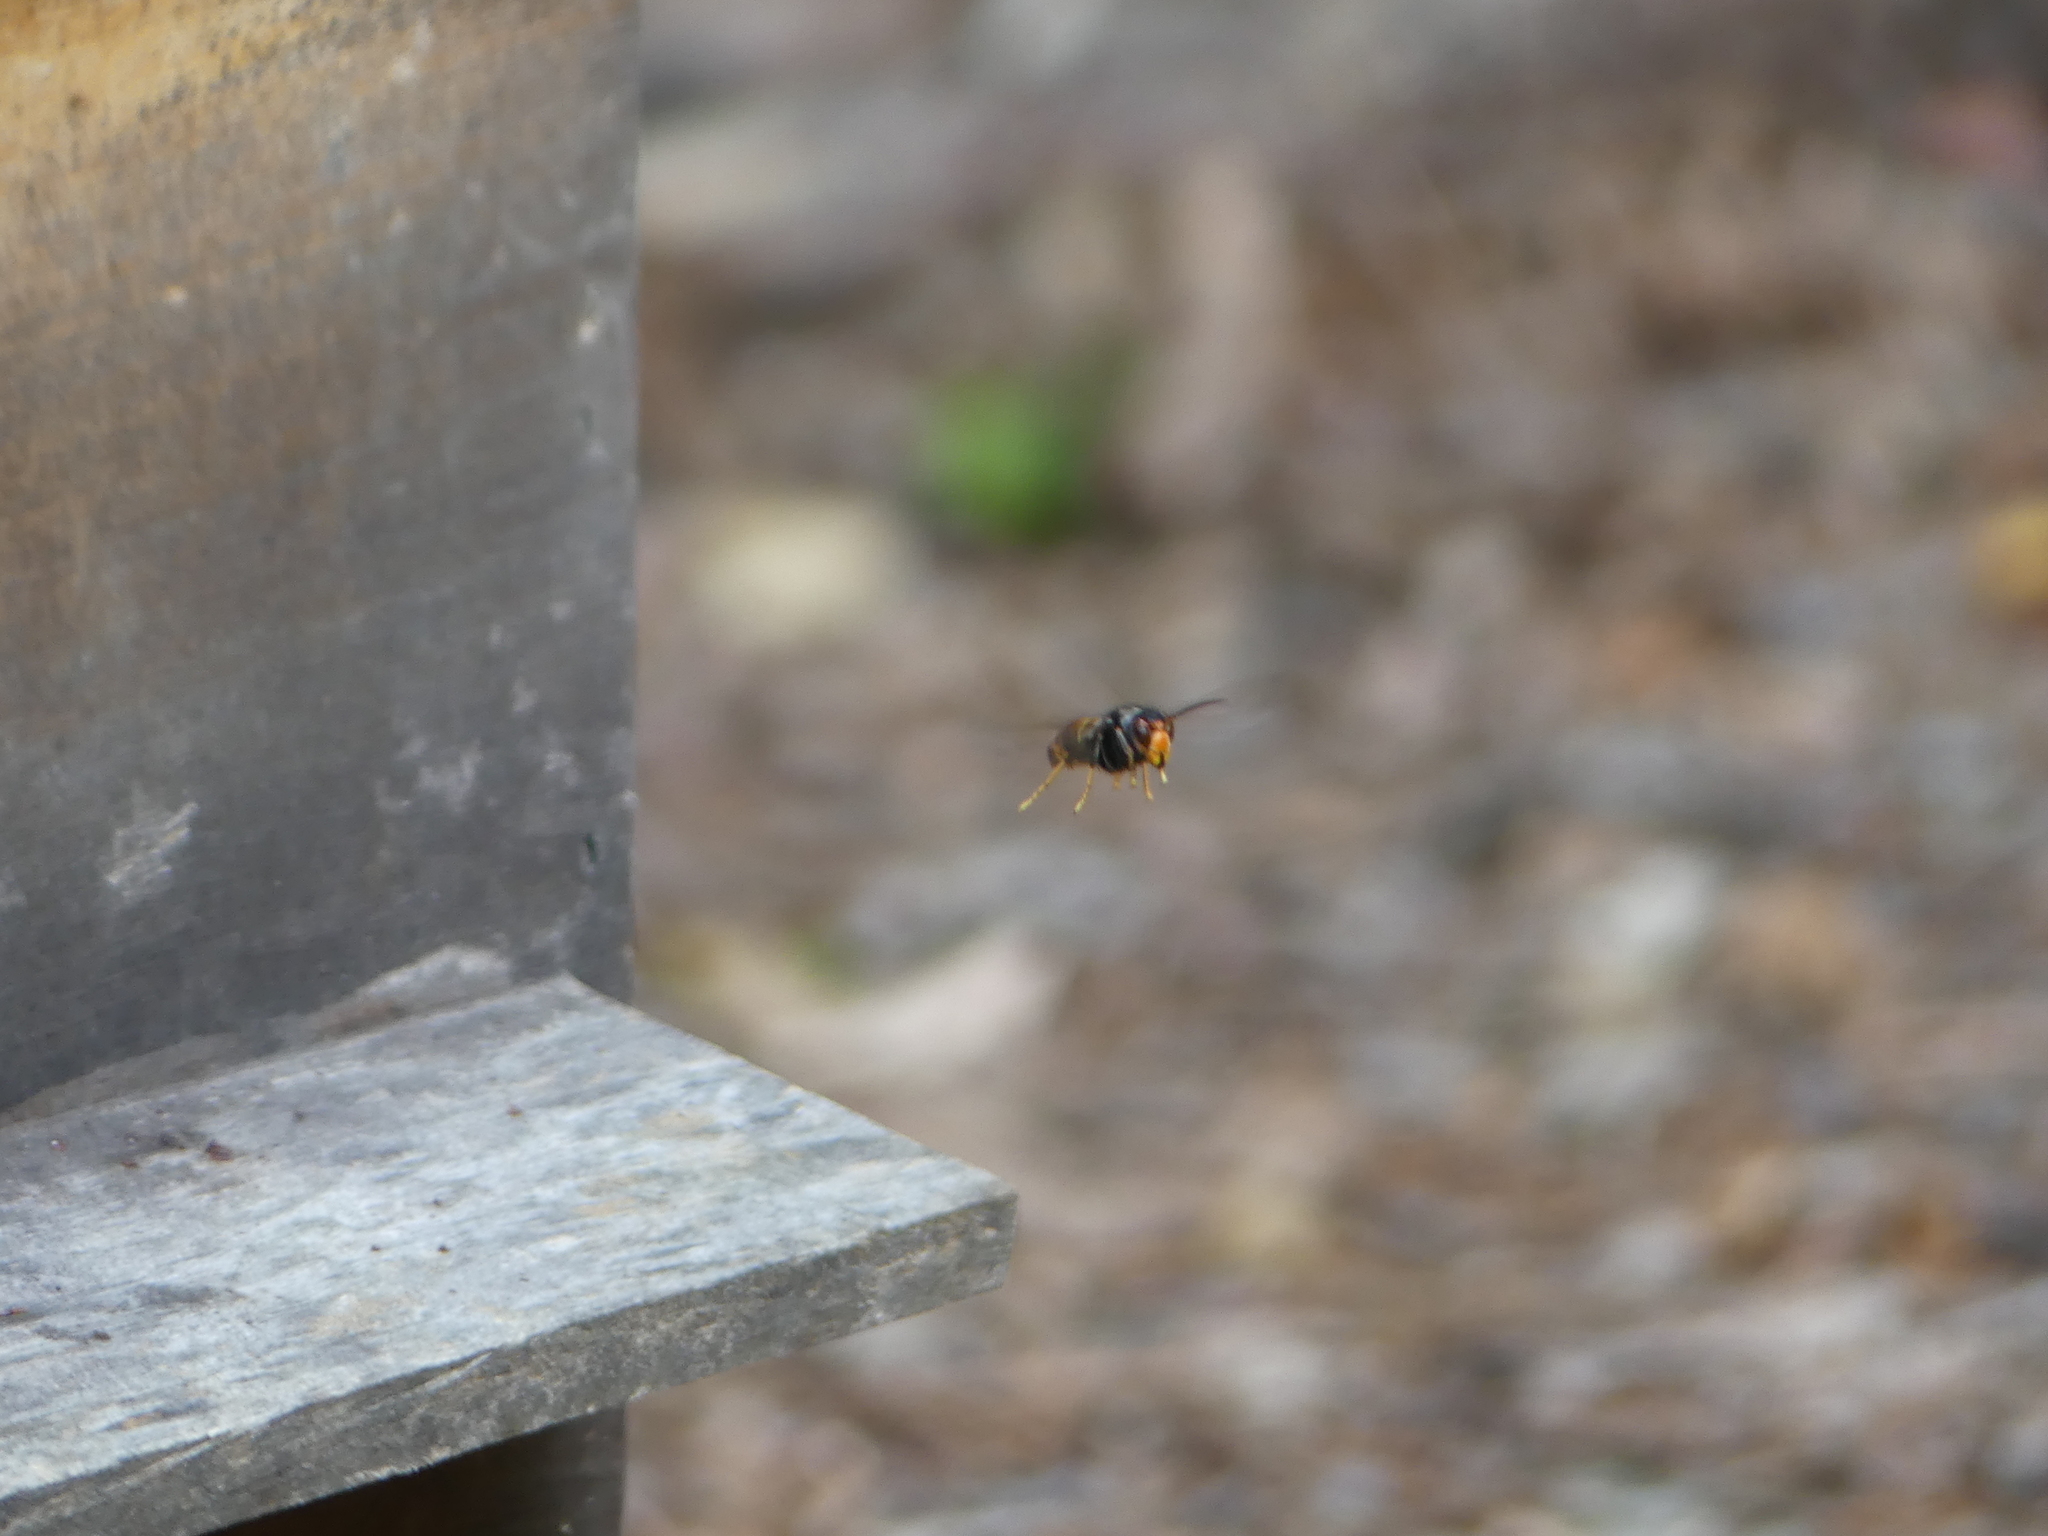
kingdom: Animalia
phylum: Arthropoda
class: Insecta
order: Hymenoptera
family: Vespidae
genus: Vespa
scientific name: Vespa velutina
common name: Asian hornet
